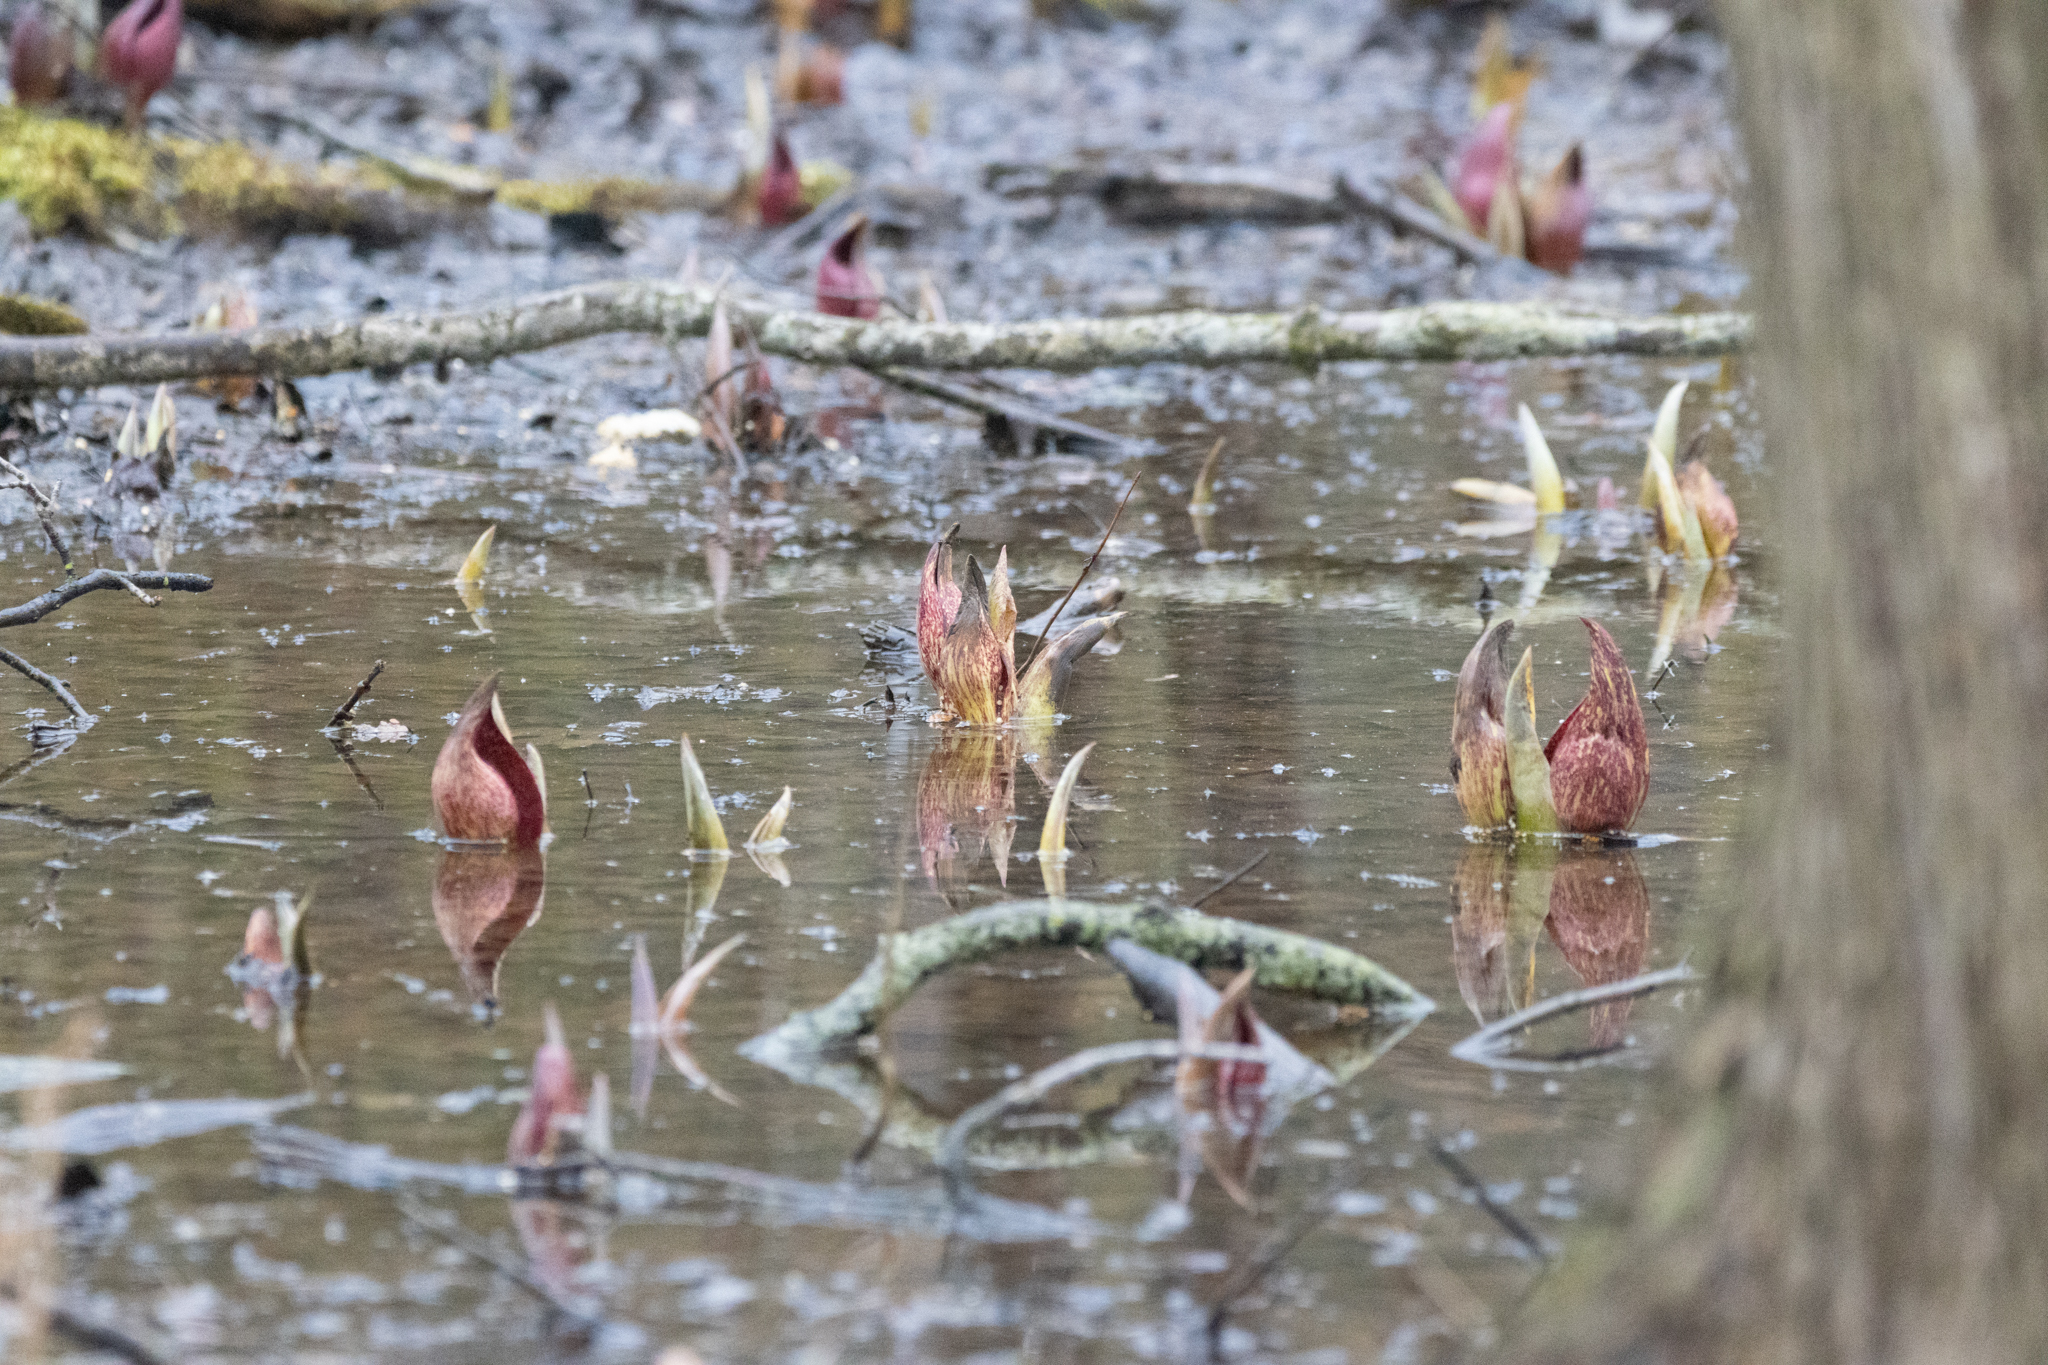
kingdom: Plantae
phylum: Tracheophyta
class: Liliopsida
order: Alismatales
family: Araceae
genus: Symplocarpus
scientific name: Symplocarpus foetidus
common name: Eastern skunk cabbage
